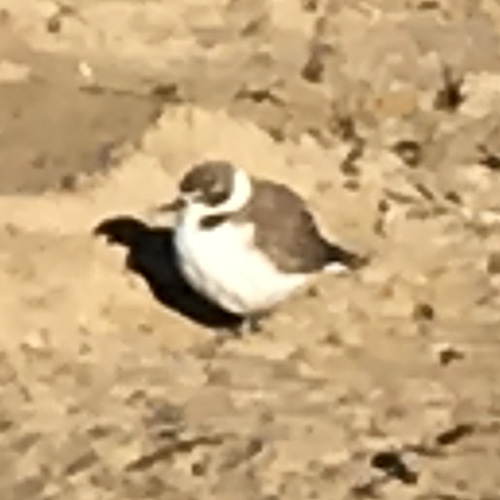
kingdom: Animalia
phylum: Chordata
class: Aves
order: Charadriiformes
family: Charadriidae
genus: Anarhynchus
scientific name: Anarhynchus
